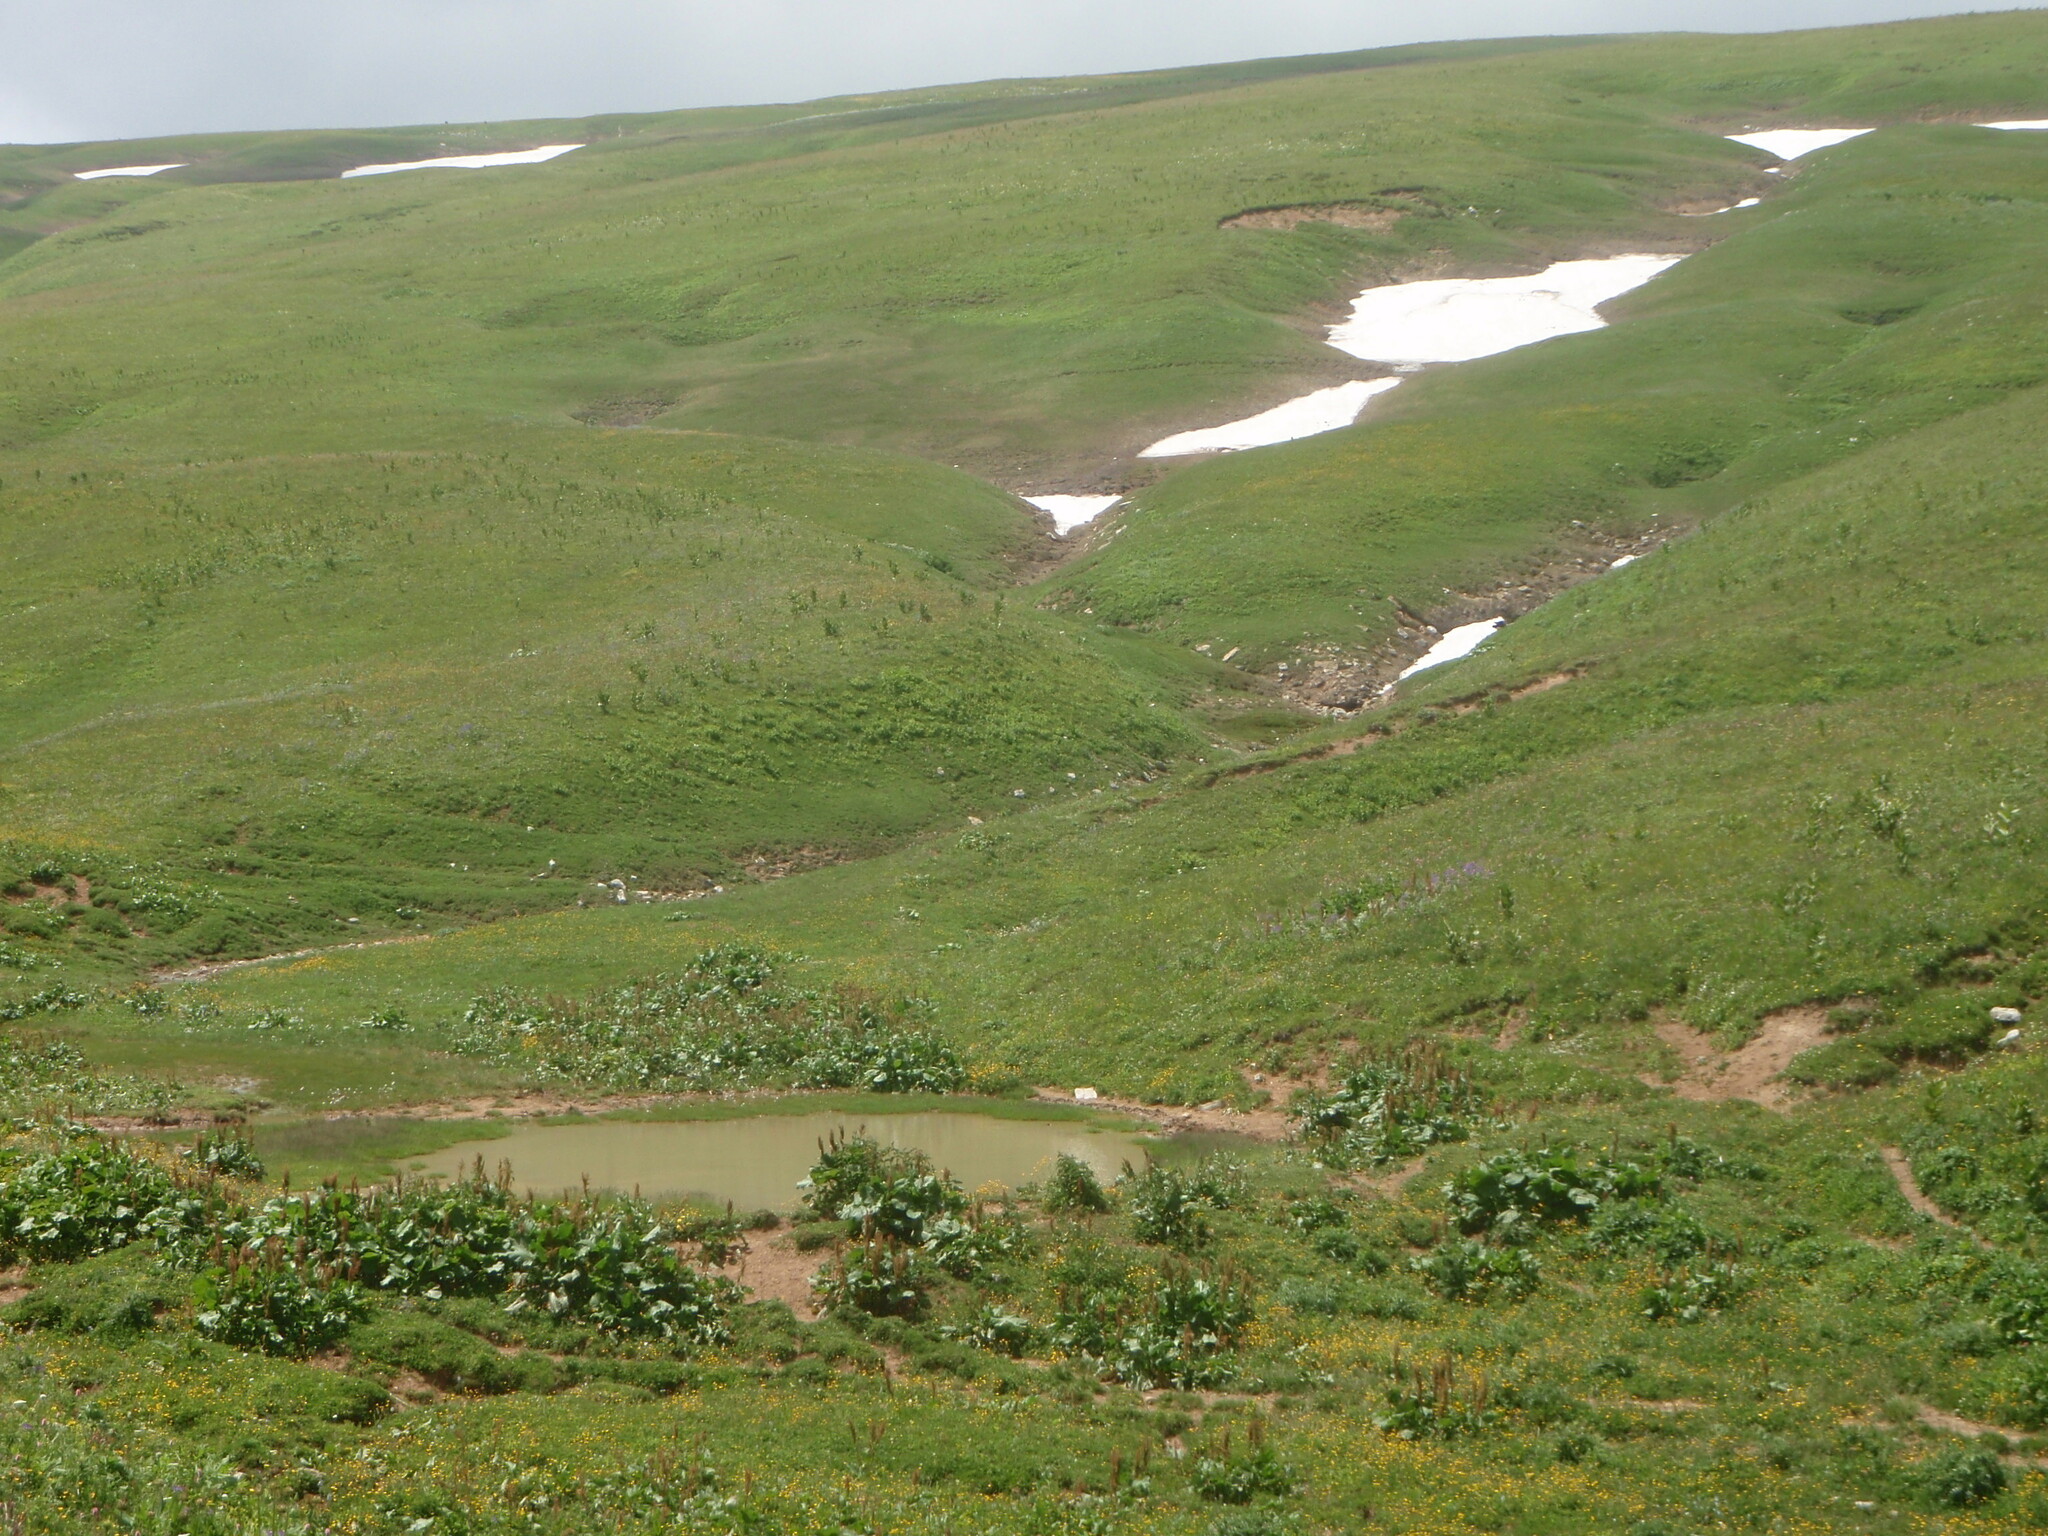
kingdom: Plantae
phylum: Tracheophyta
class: Magnoliopsida
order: Caryophyllales
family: Polygonaceae
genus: Rumex
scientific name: Rumex alpinus
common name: Alpine dock
